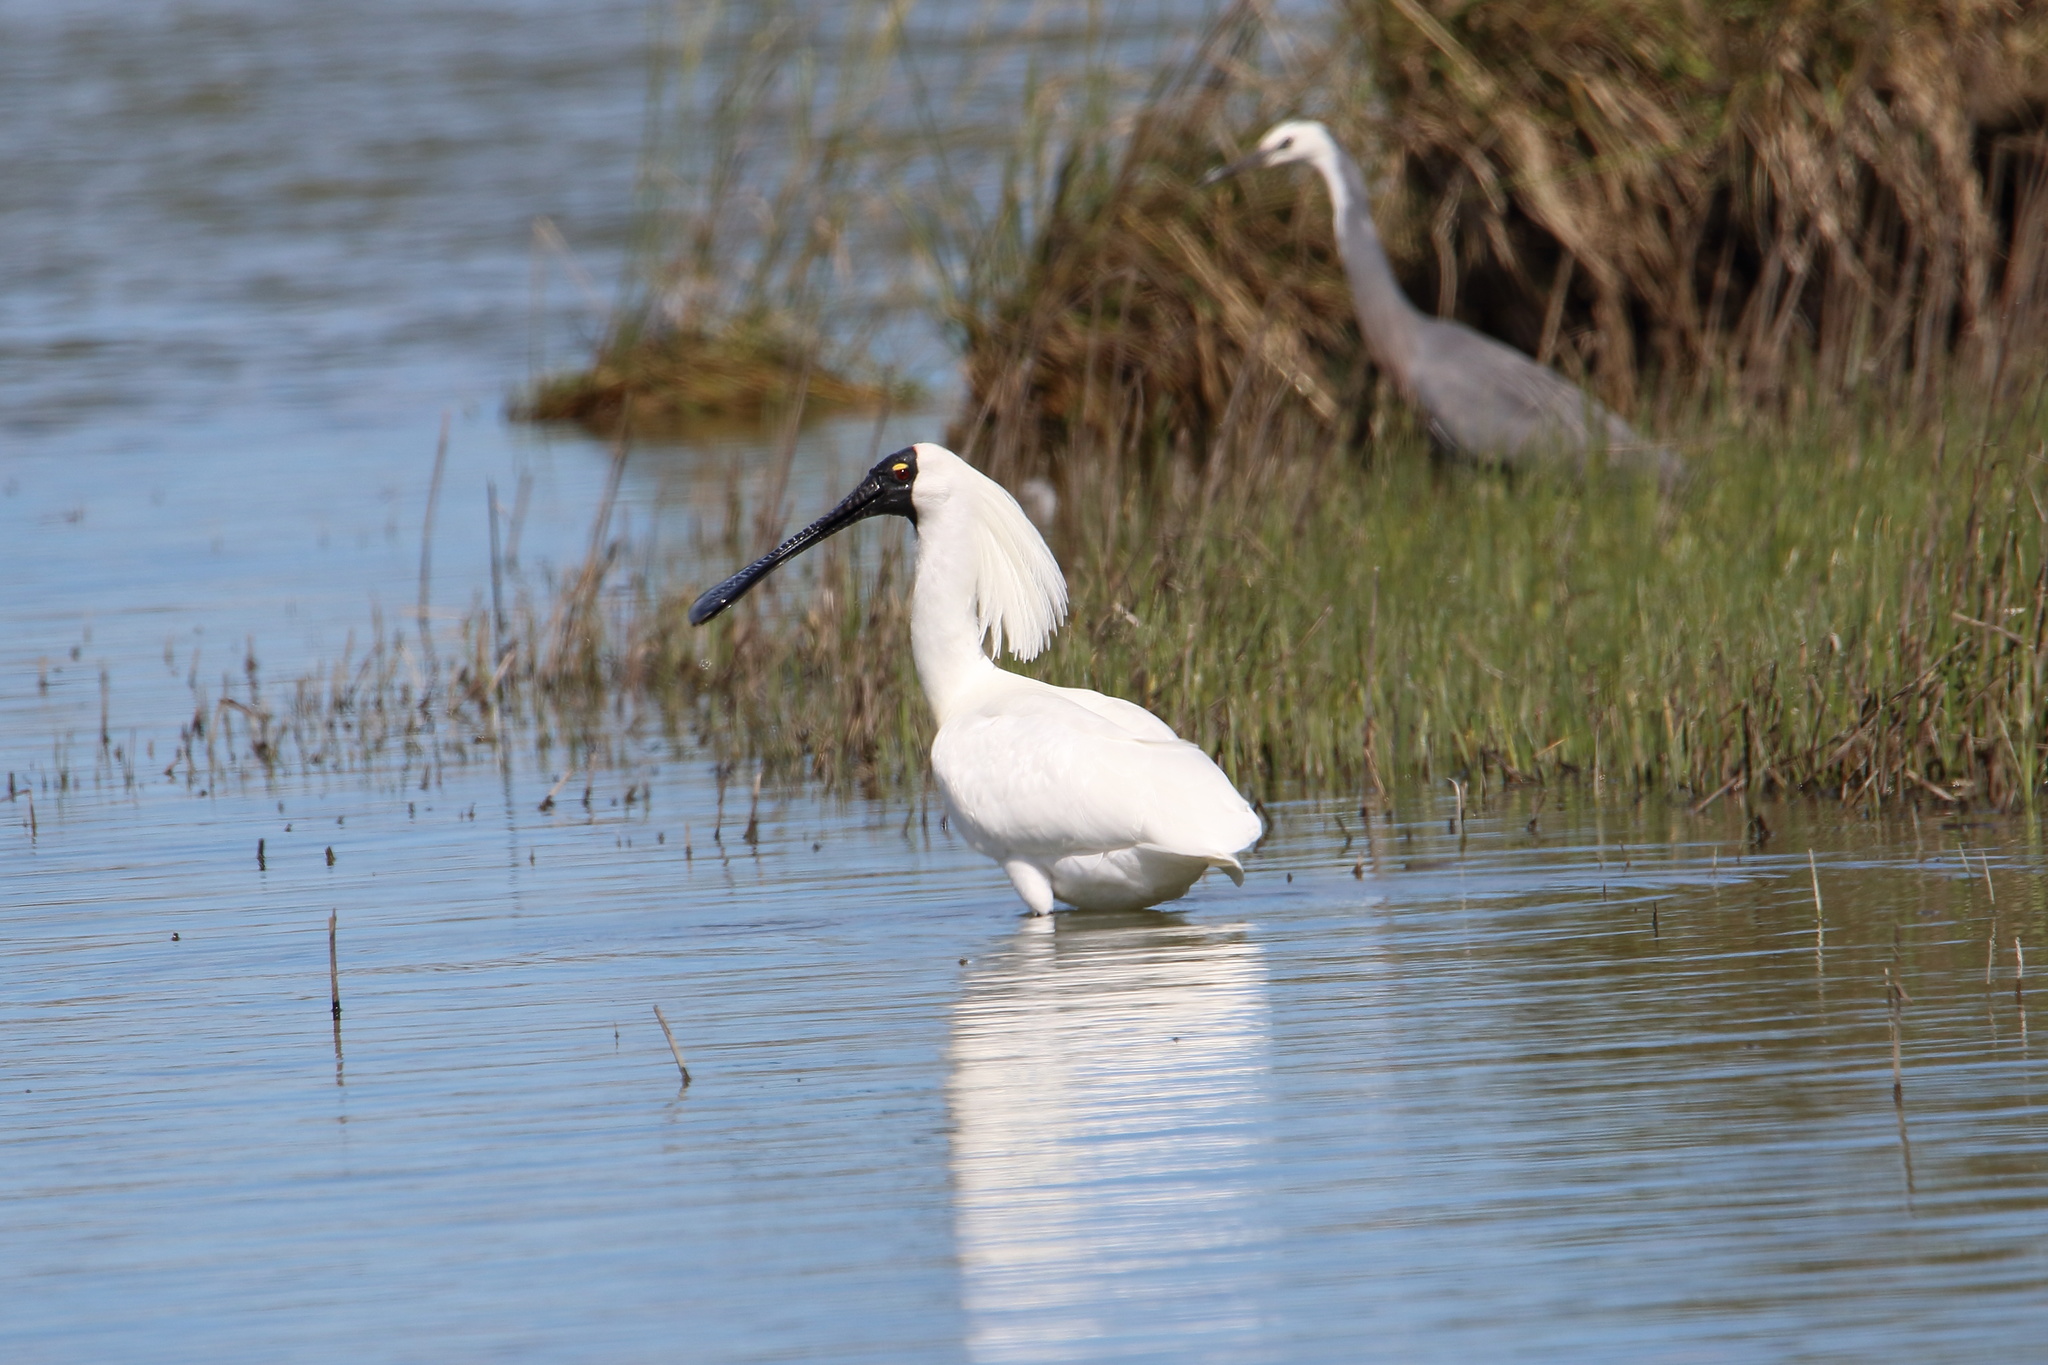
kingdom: Animalia
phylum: Chordata
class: Aves
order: Pelecaniformes
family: Threskiornithidae
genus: Platalea
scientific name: Platalea regia
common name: Royal spoonbill
